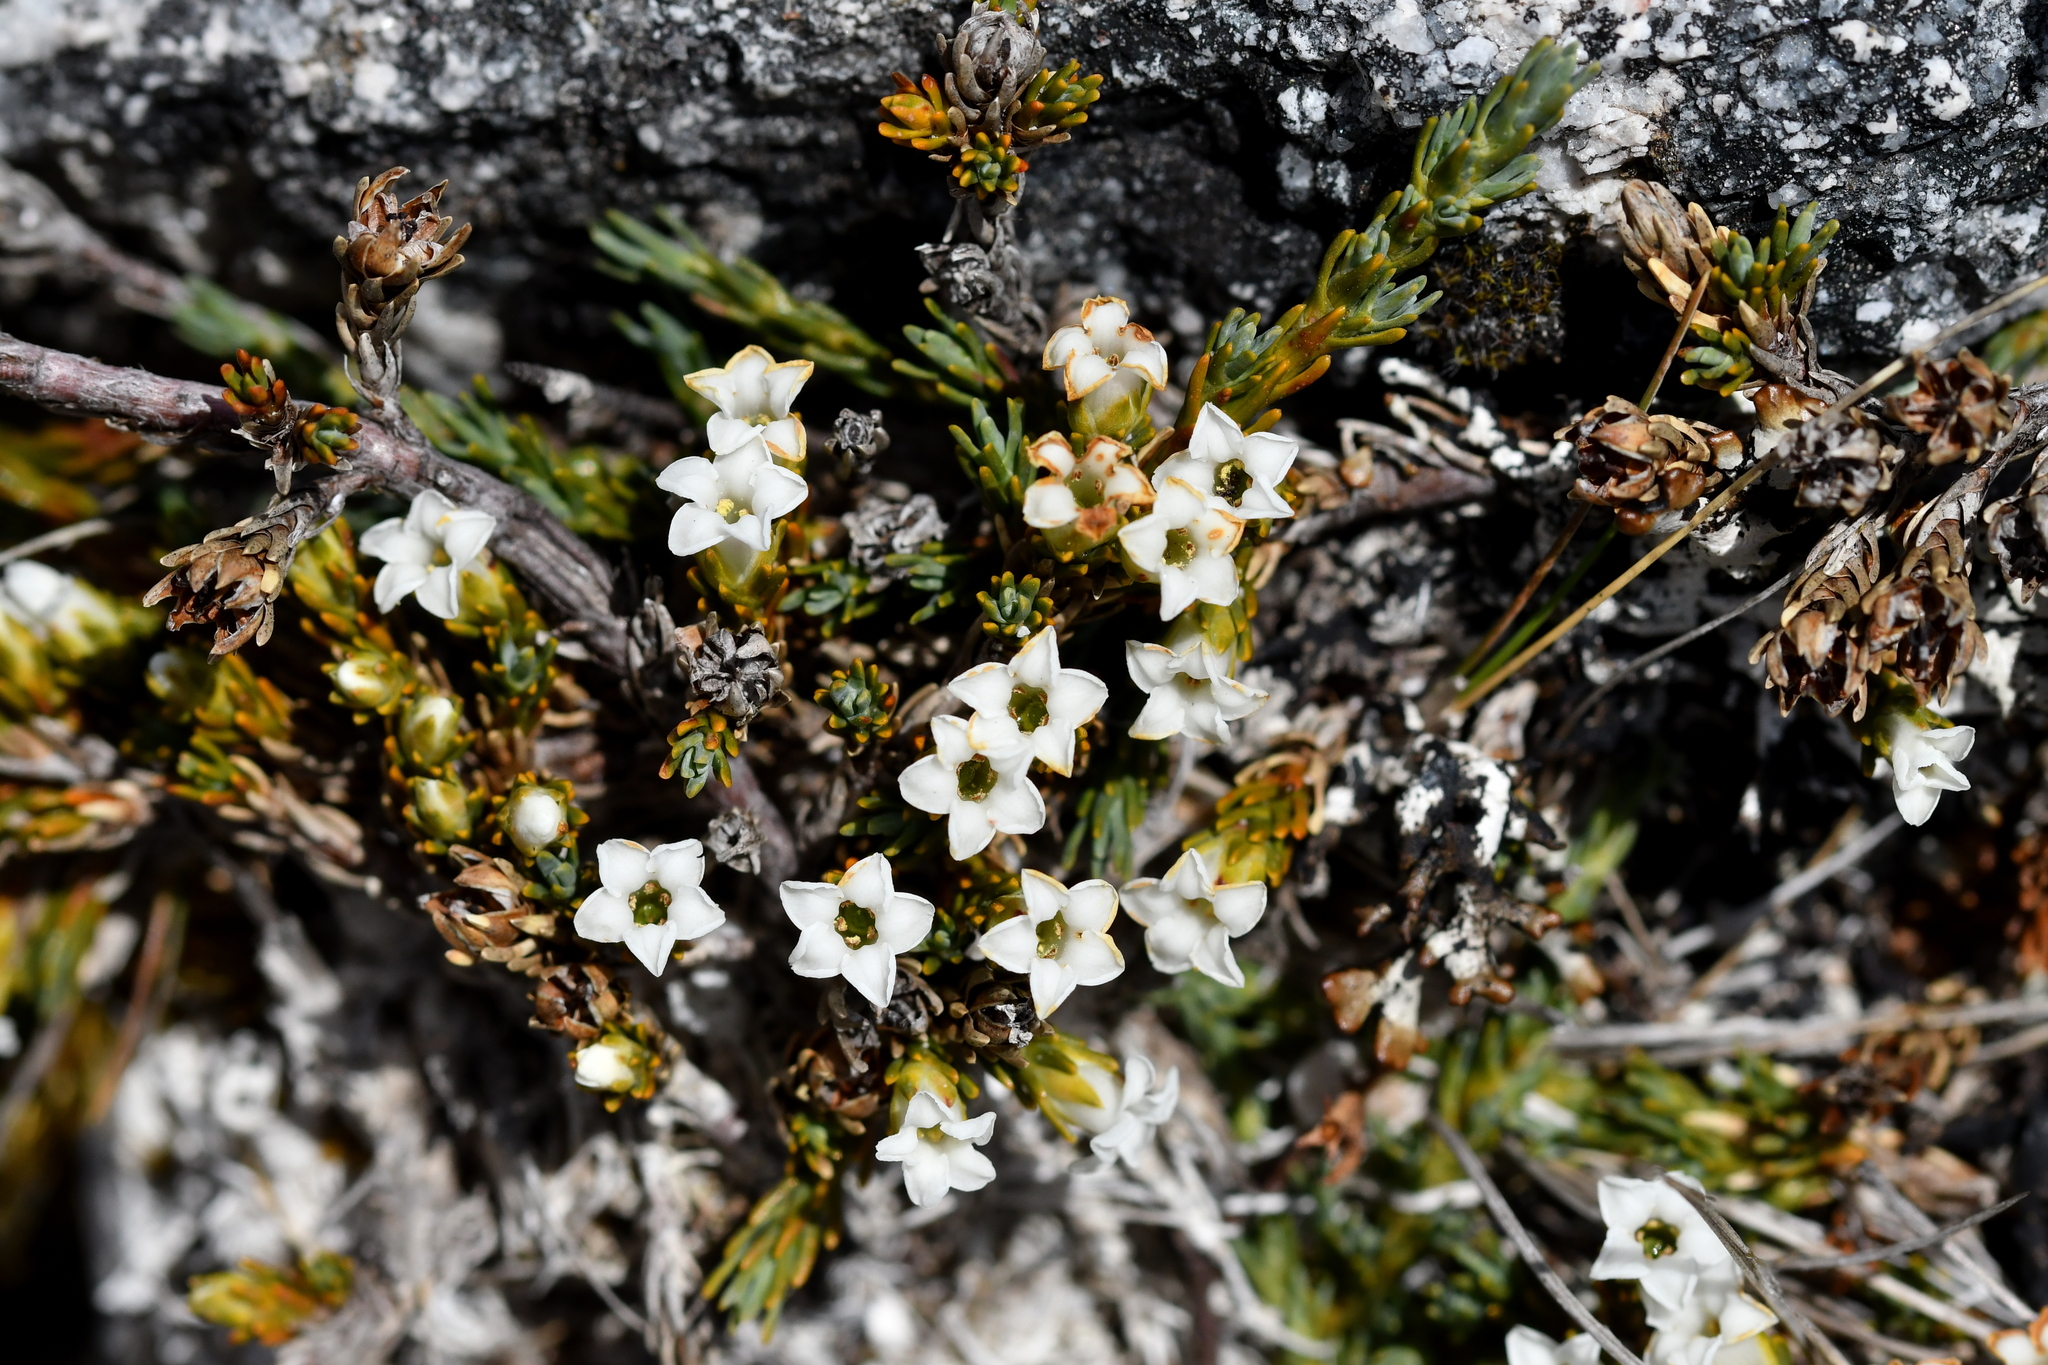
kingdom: Plantae
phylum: Tracheophyta
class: Magnoliopsida
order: Ericales
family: Ericaceae
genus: Dracophyllum
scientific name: Dracophyllum prostratum
